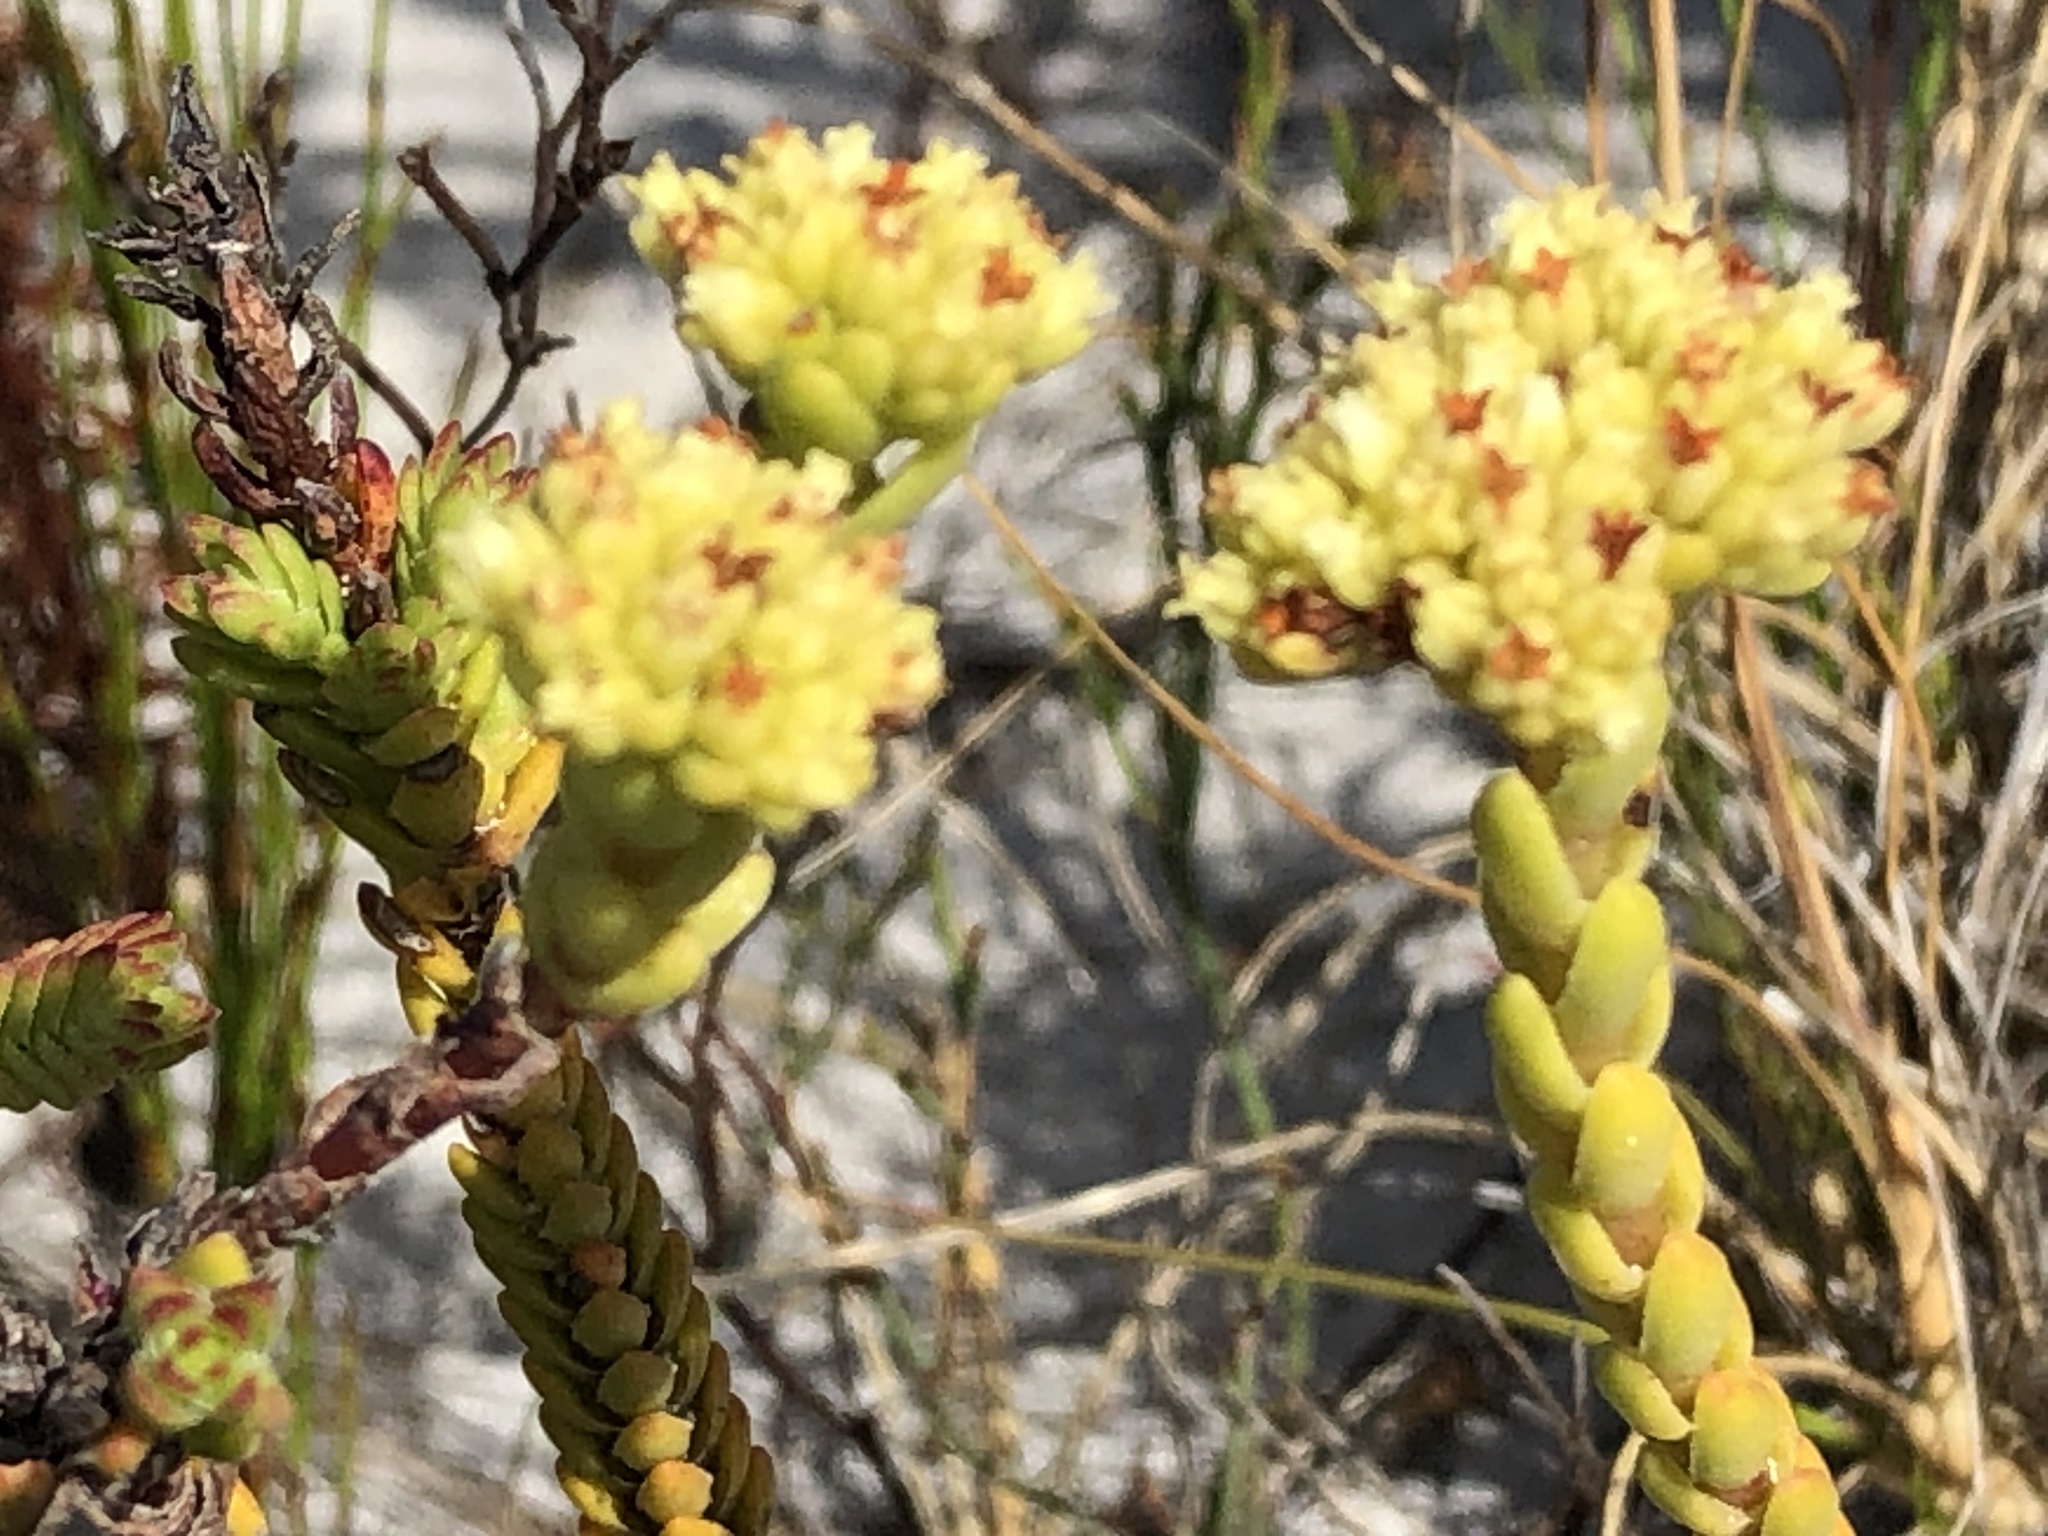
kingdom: Plantae
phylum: Tracheophyta
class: Magnoliopsida
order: Saxifragales
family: Crassulaceae
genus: Crassula
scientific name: Crassula subulata
